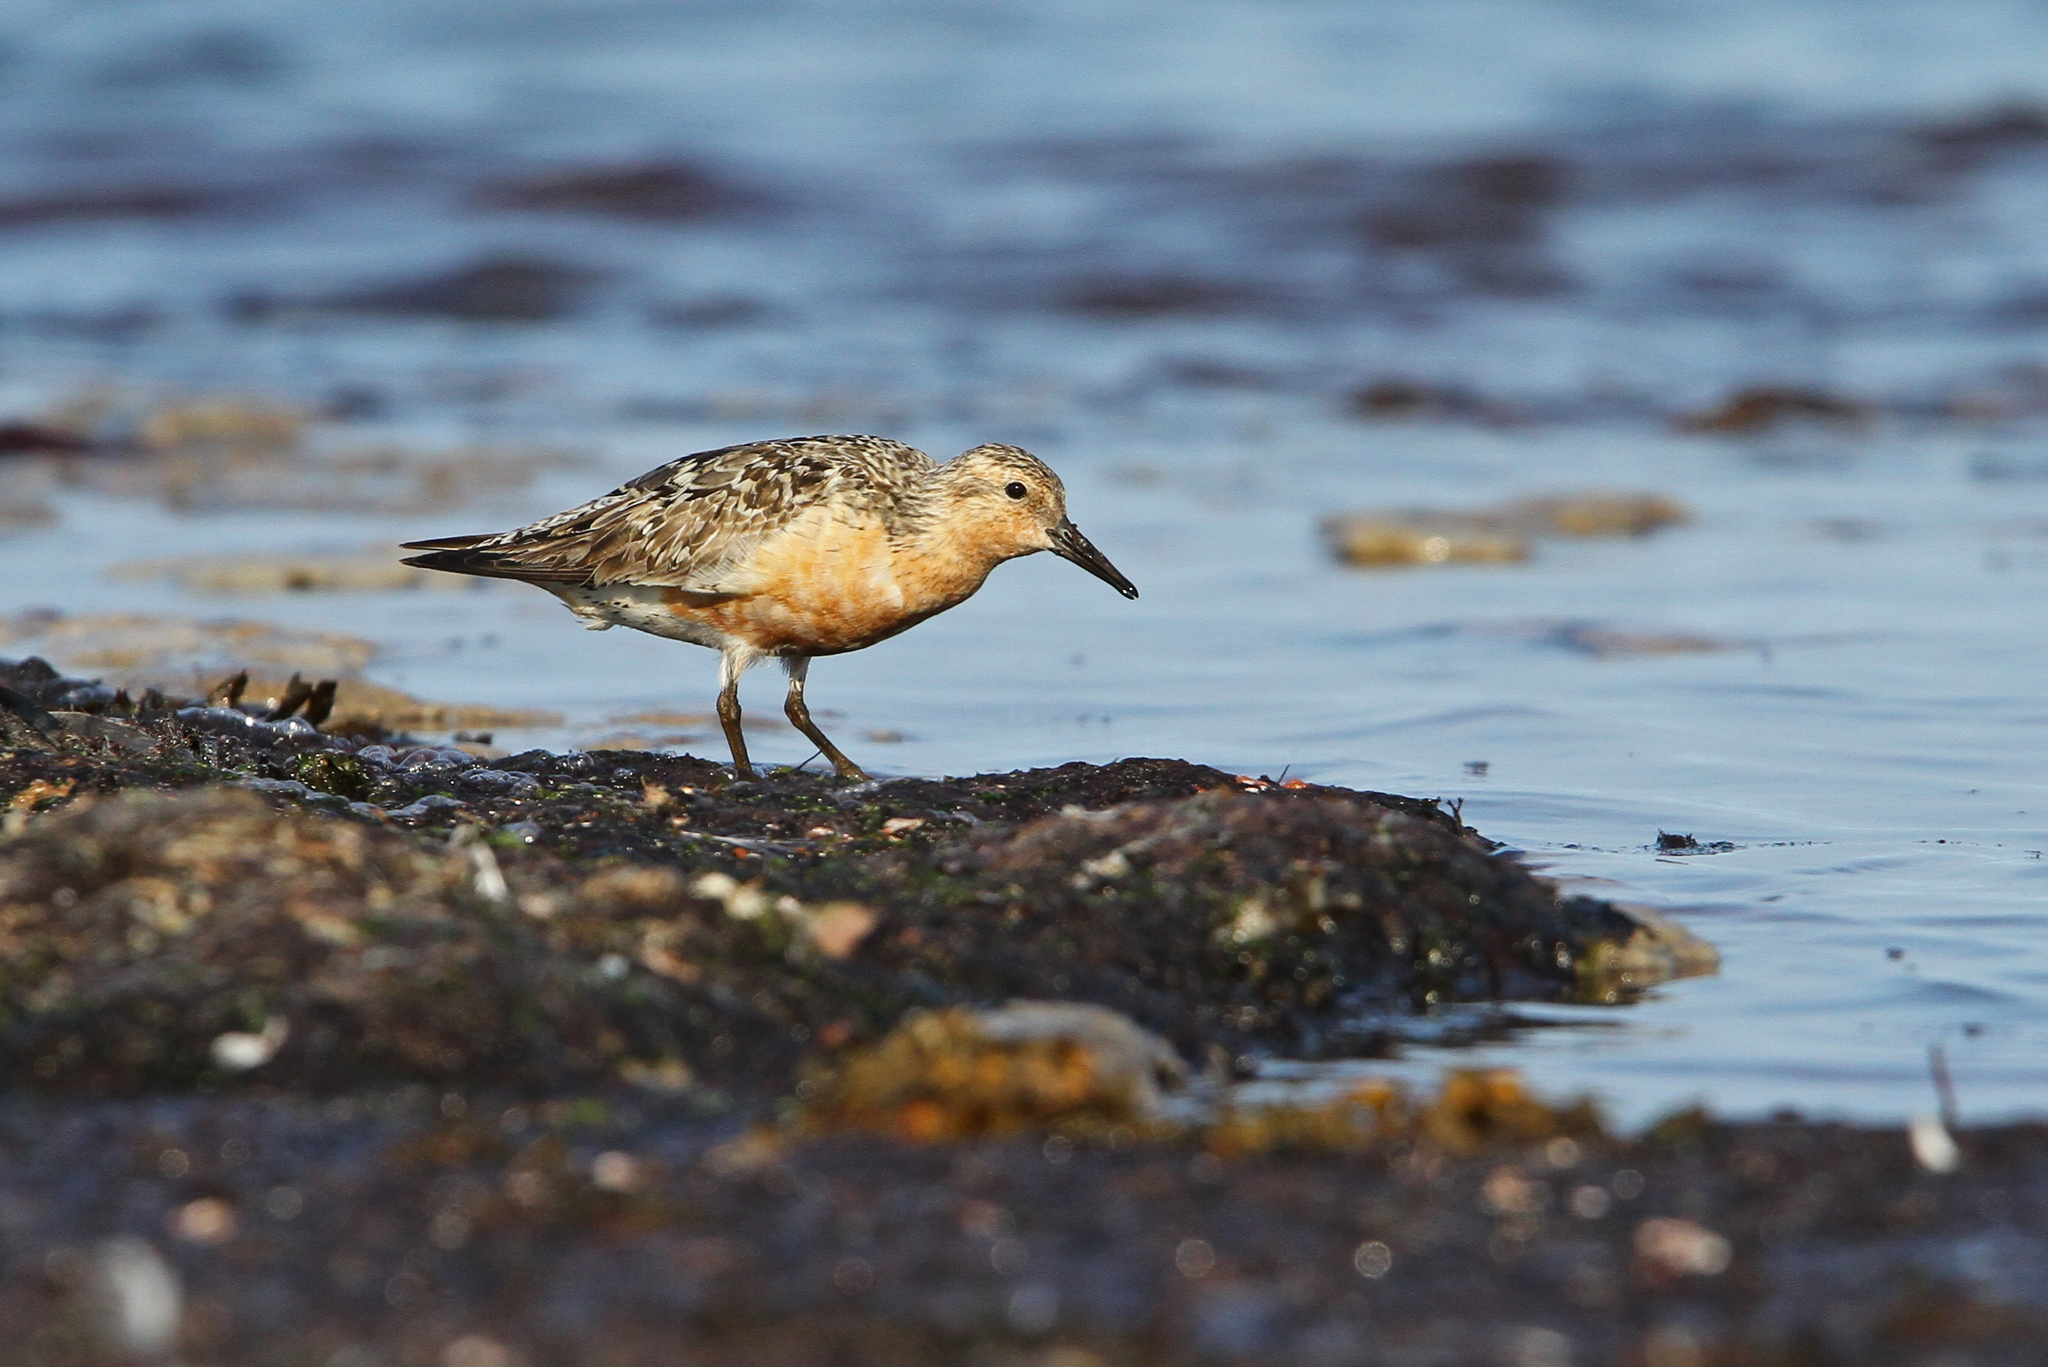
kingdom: Animalia
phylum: Chordata
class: Aves
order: Charadriiformes
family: Scolopacidae
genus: Calidris
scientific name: Calidris canutus
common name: Red knot
